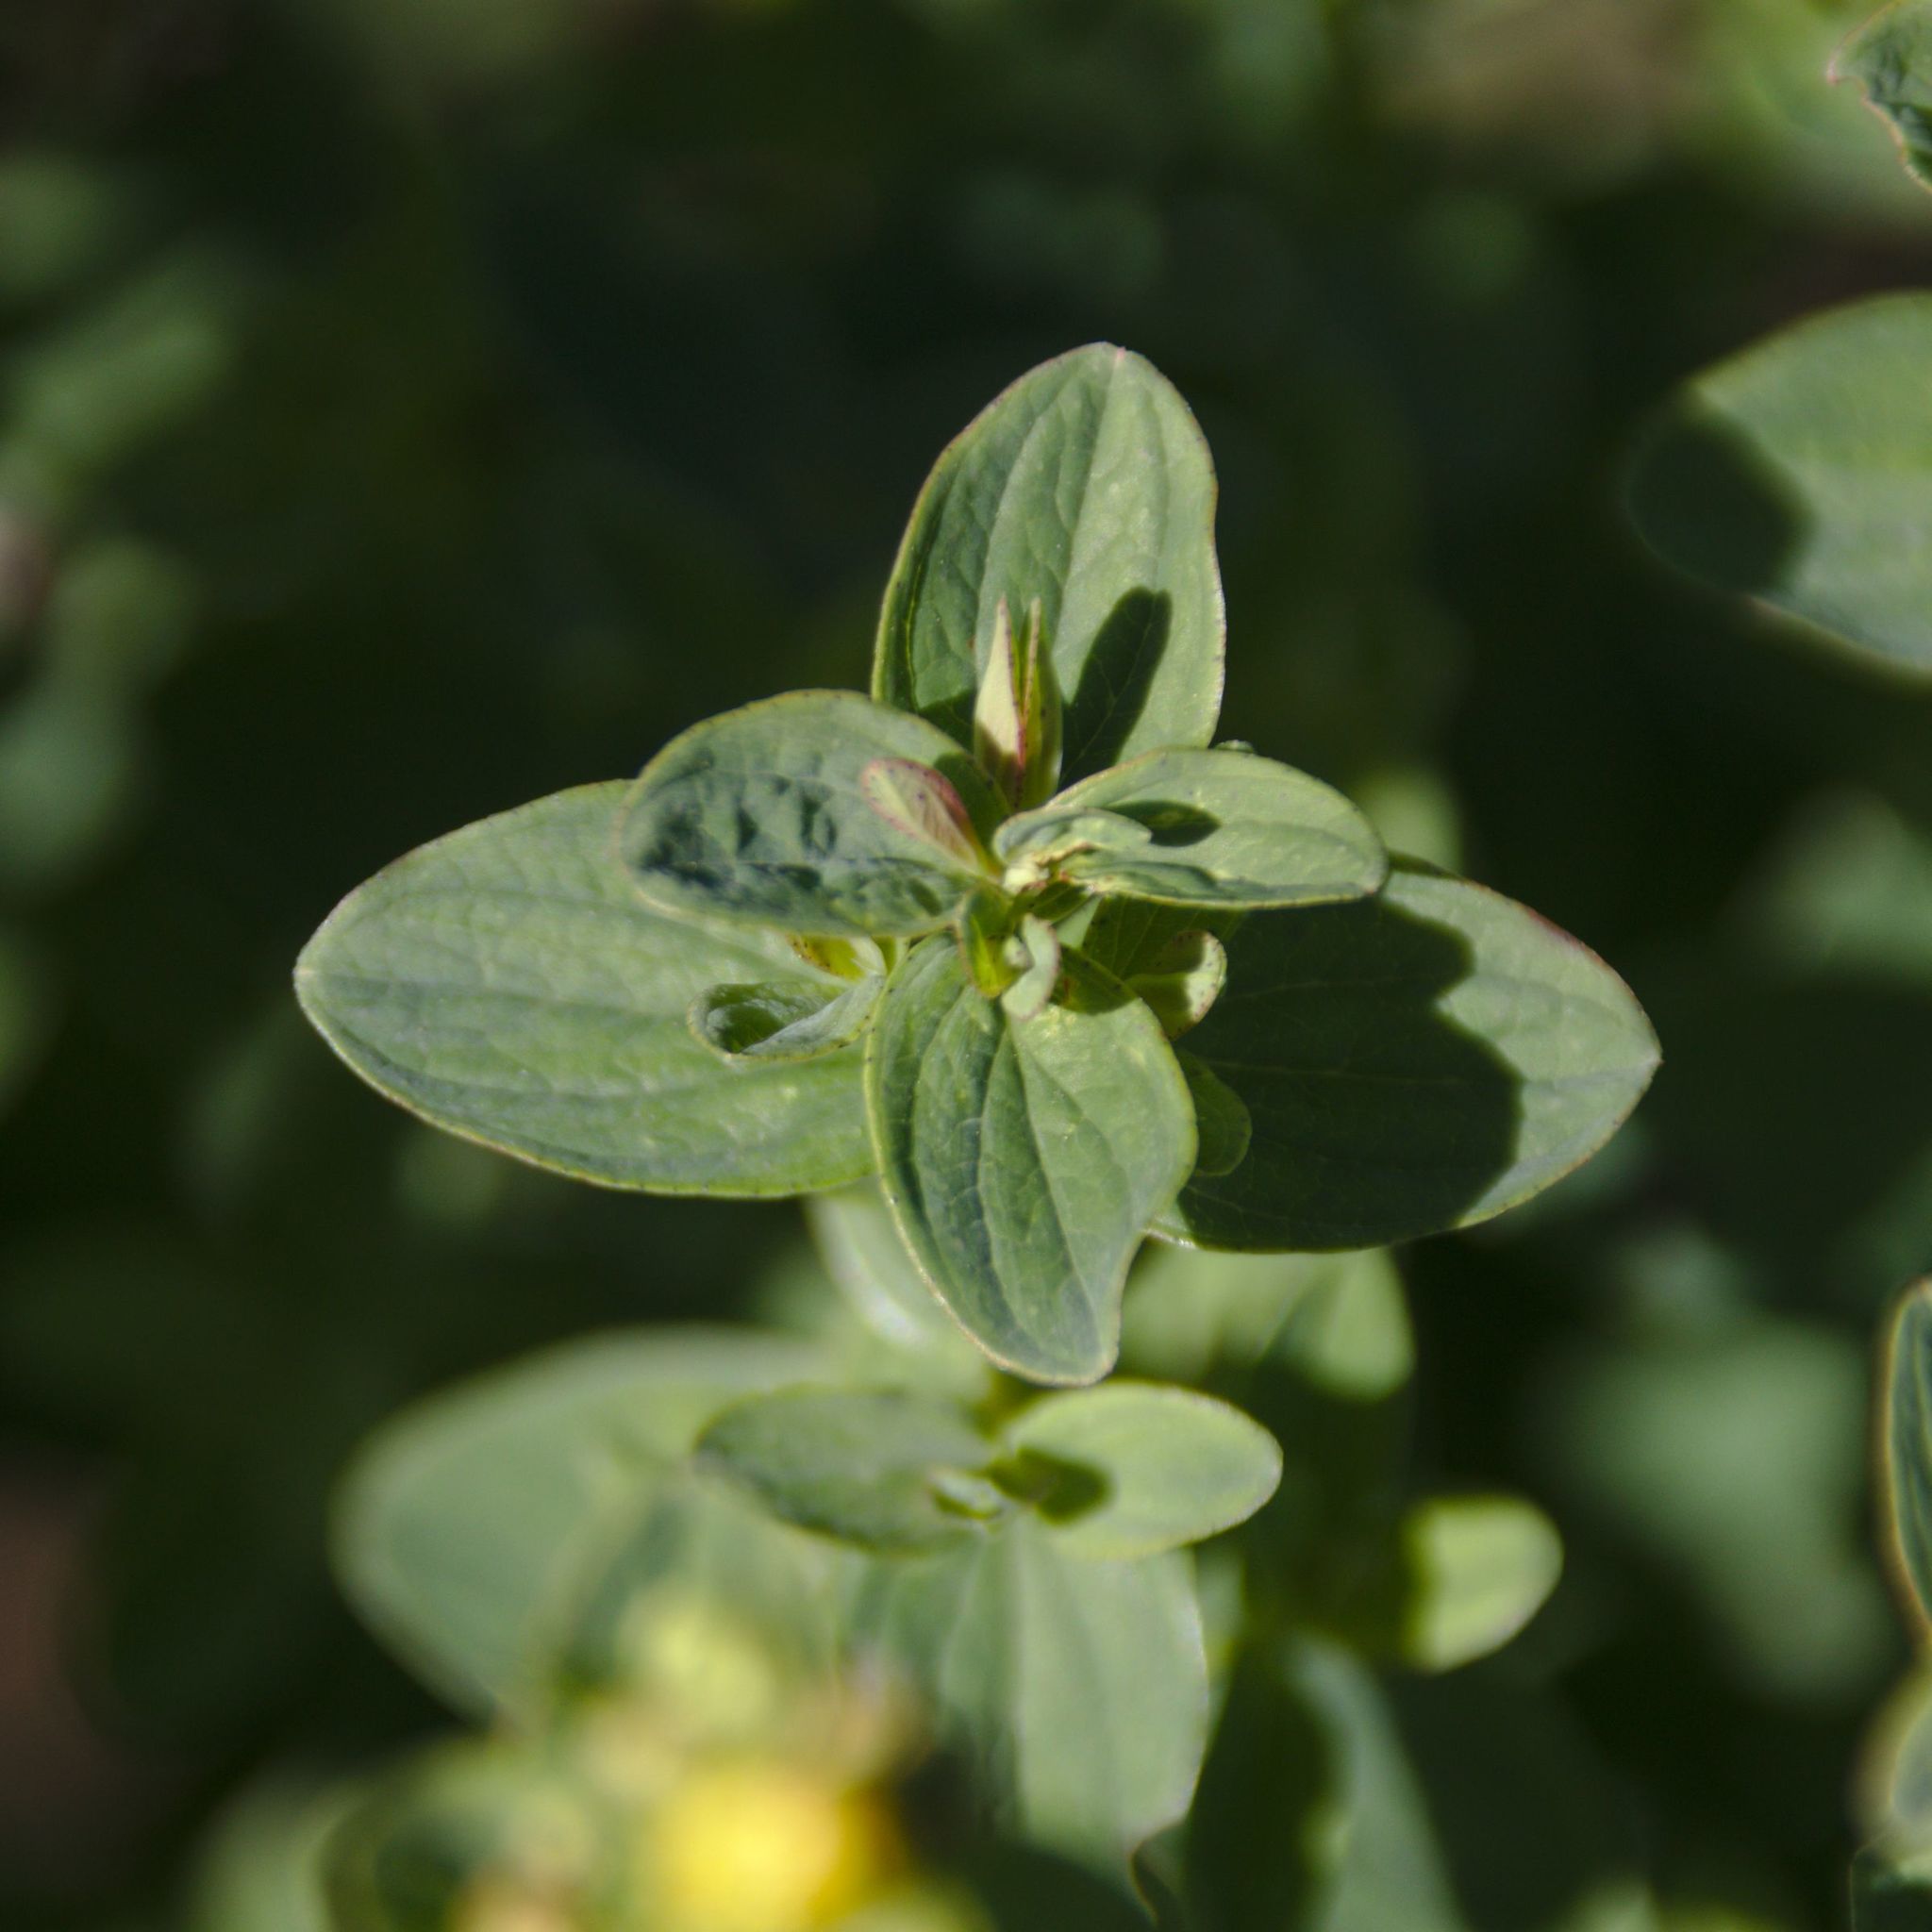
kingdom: Plantae
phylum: Tracheophyta
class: Magnoliopsida
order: Malpighiales
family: Hypericaceae
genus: Hypericum
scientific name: Hypericum maculatum
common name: Imperforate st. john's-wort
